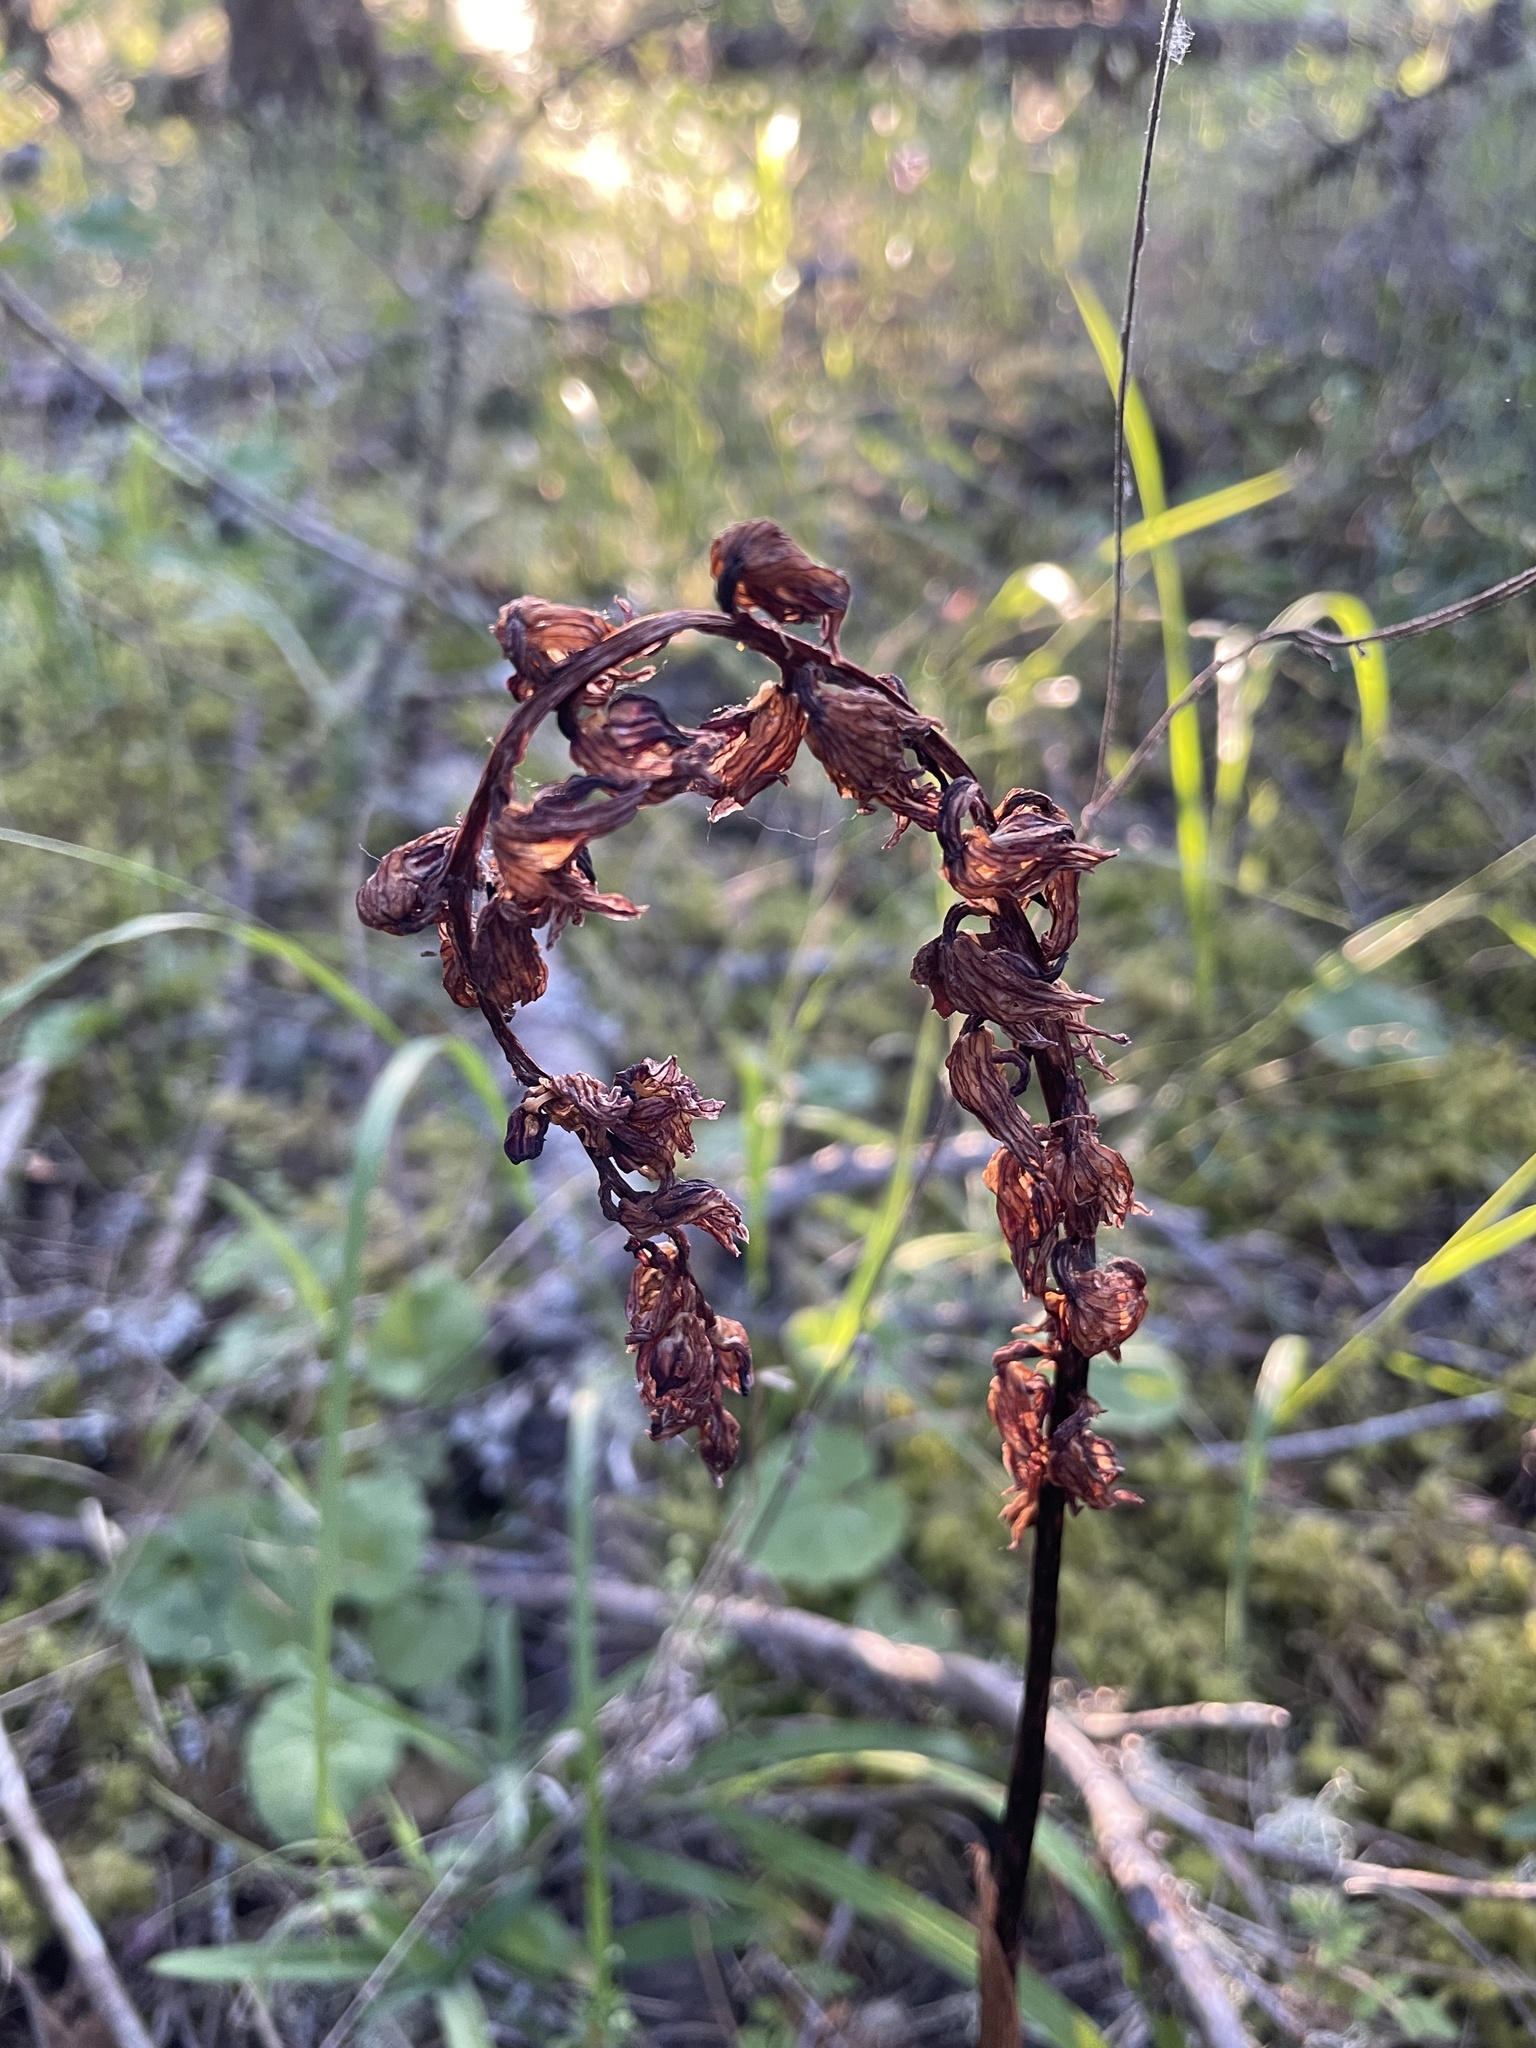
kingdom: Plantae
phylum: Tracheophyta
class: Liliopsida
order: Asparagales
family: Orchidaceae
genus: Corallorhiza
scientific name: Corallorhiza striata
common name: Hooded coralroot
